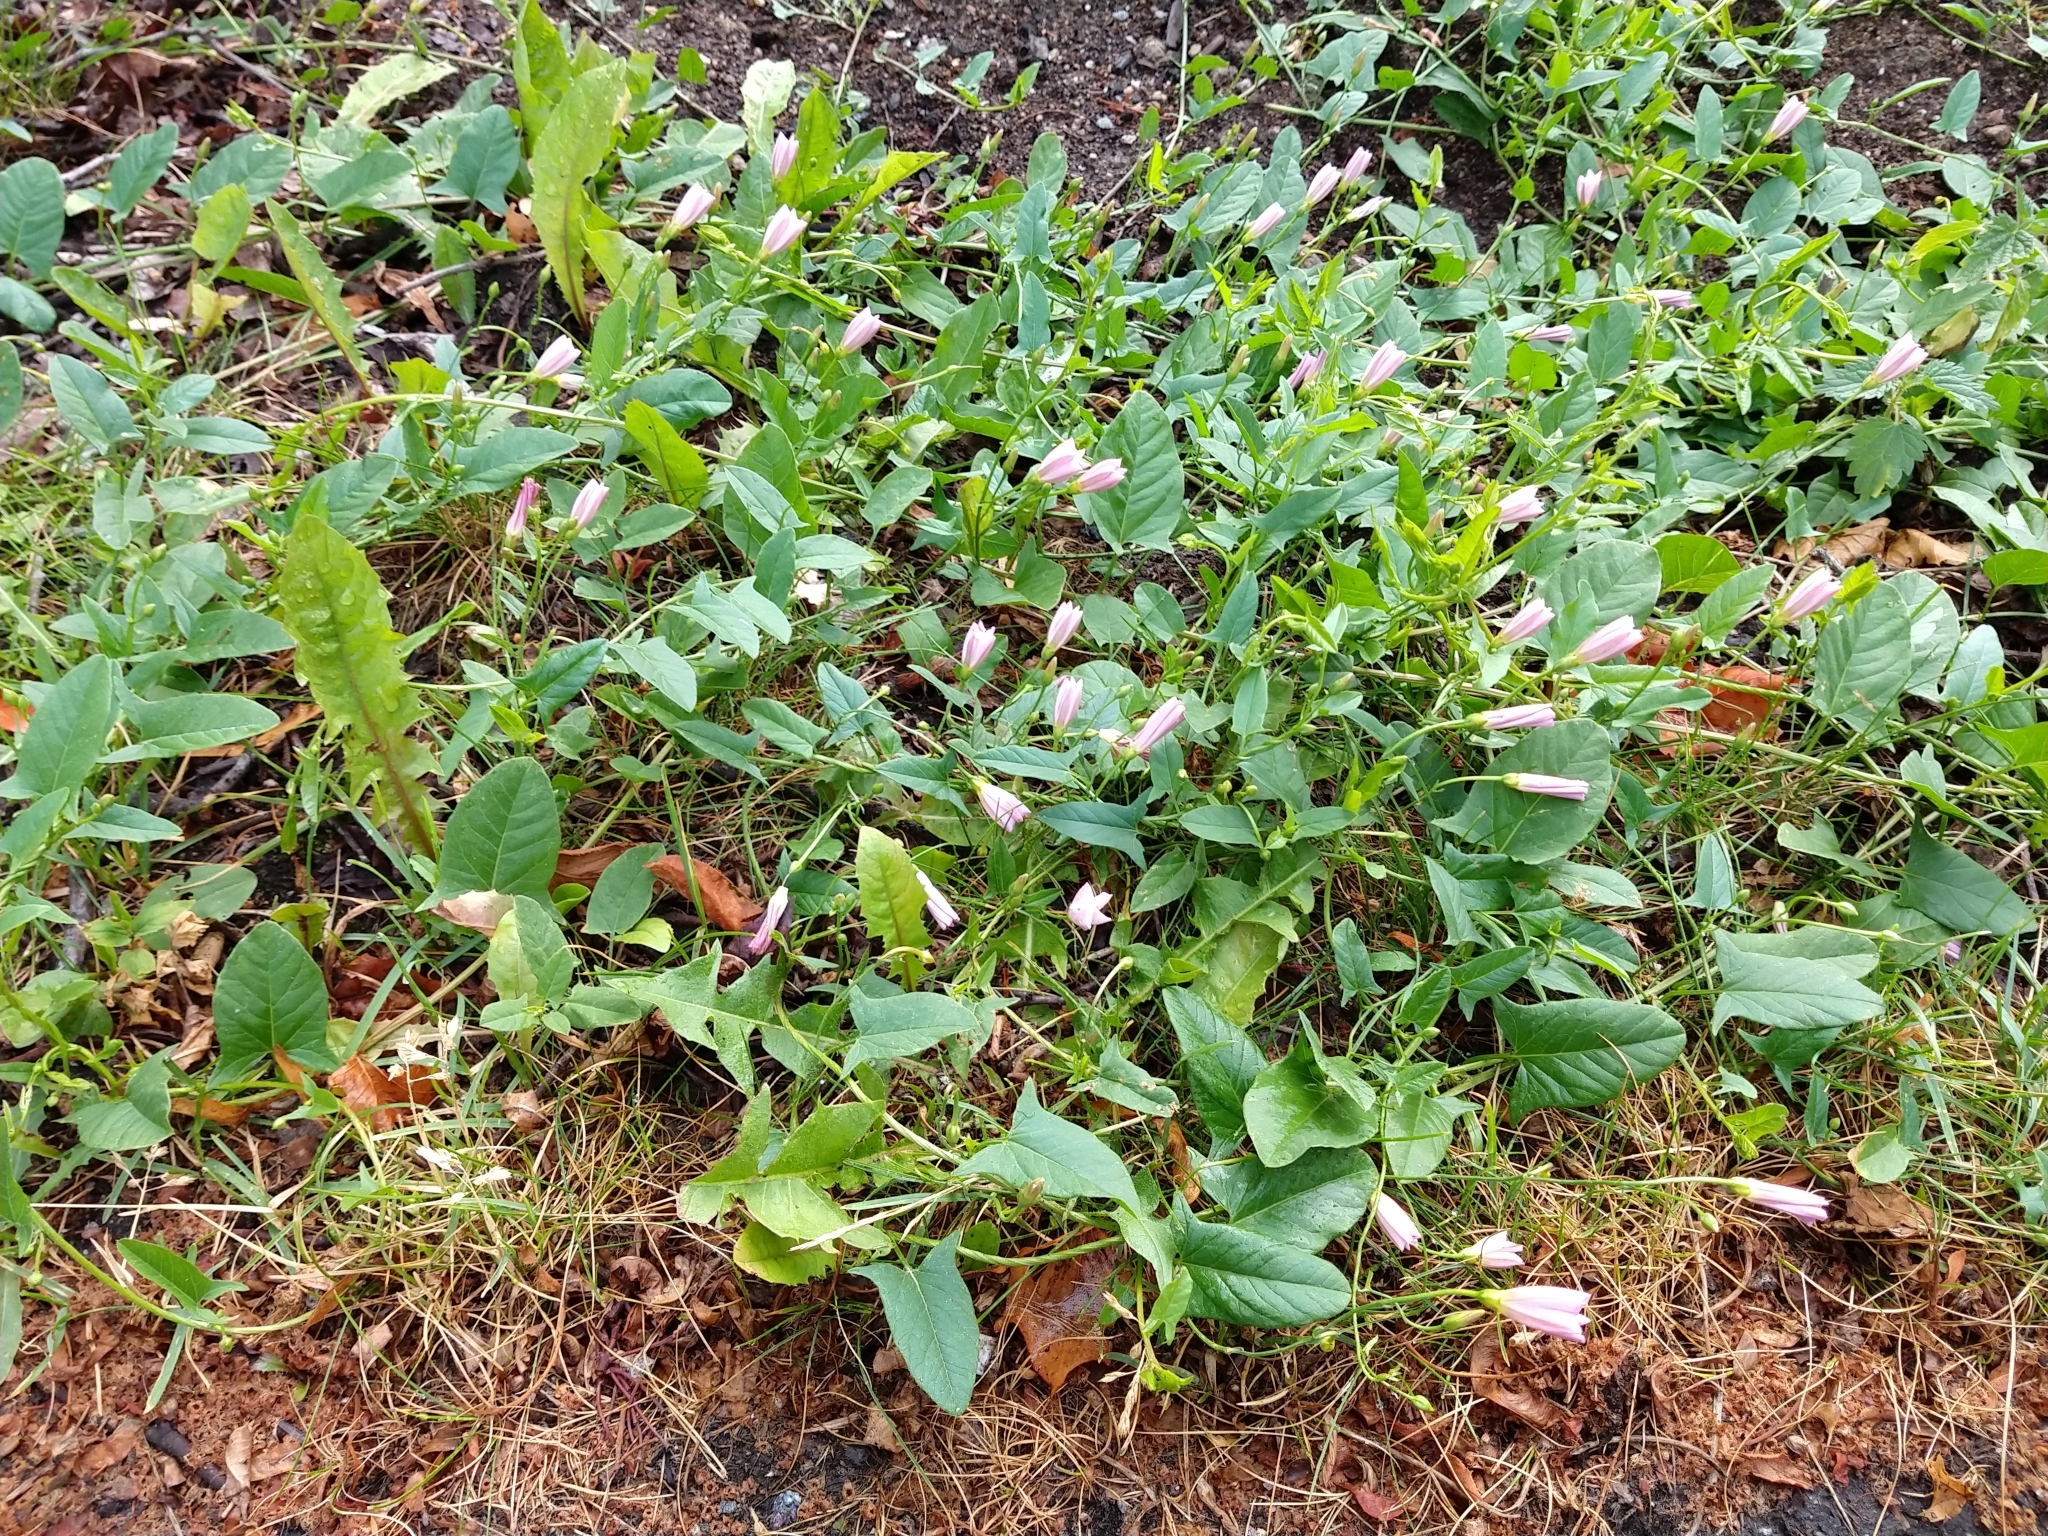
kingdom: Plantae
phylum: Tracheophyta
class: Magnoliopsida
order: Solanales
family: Convolvulaceae
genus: Convolvulus
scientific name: Convolvulus arvensis
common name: Field bindweed
